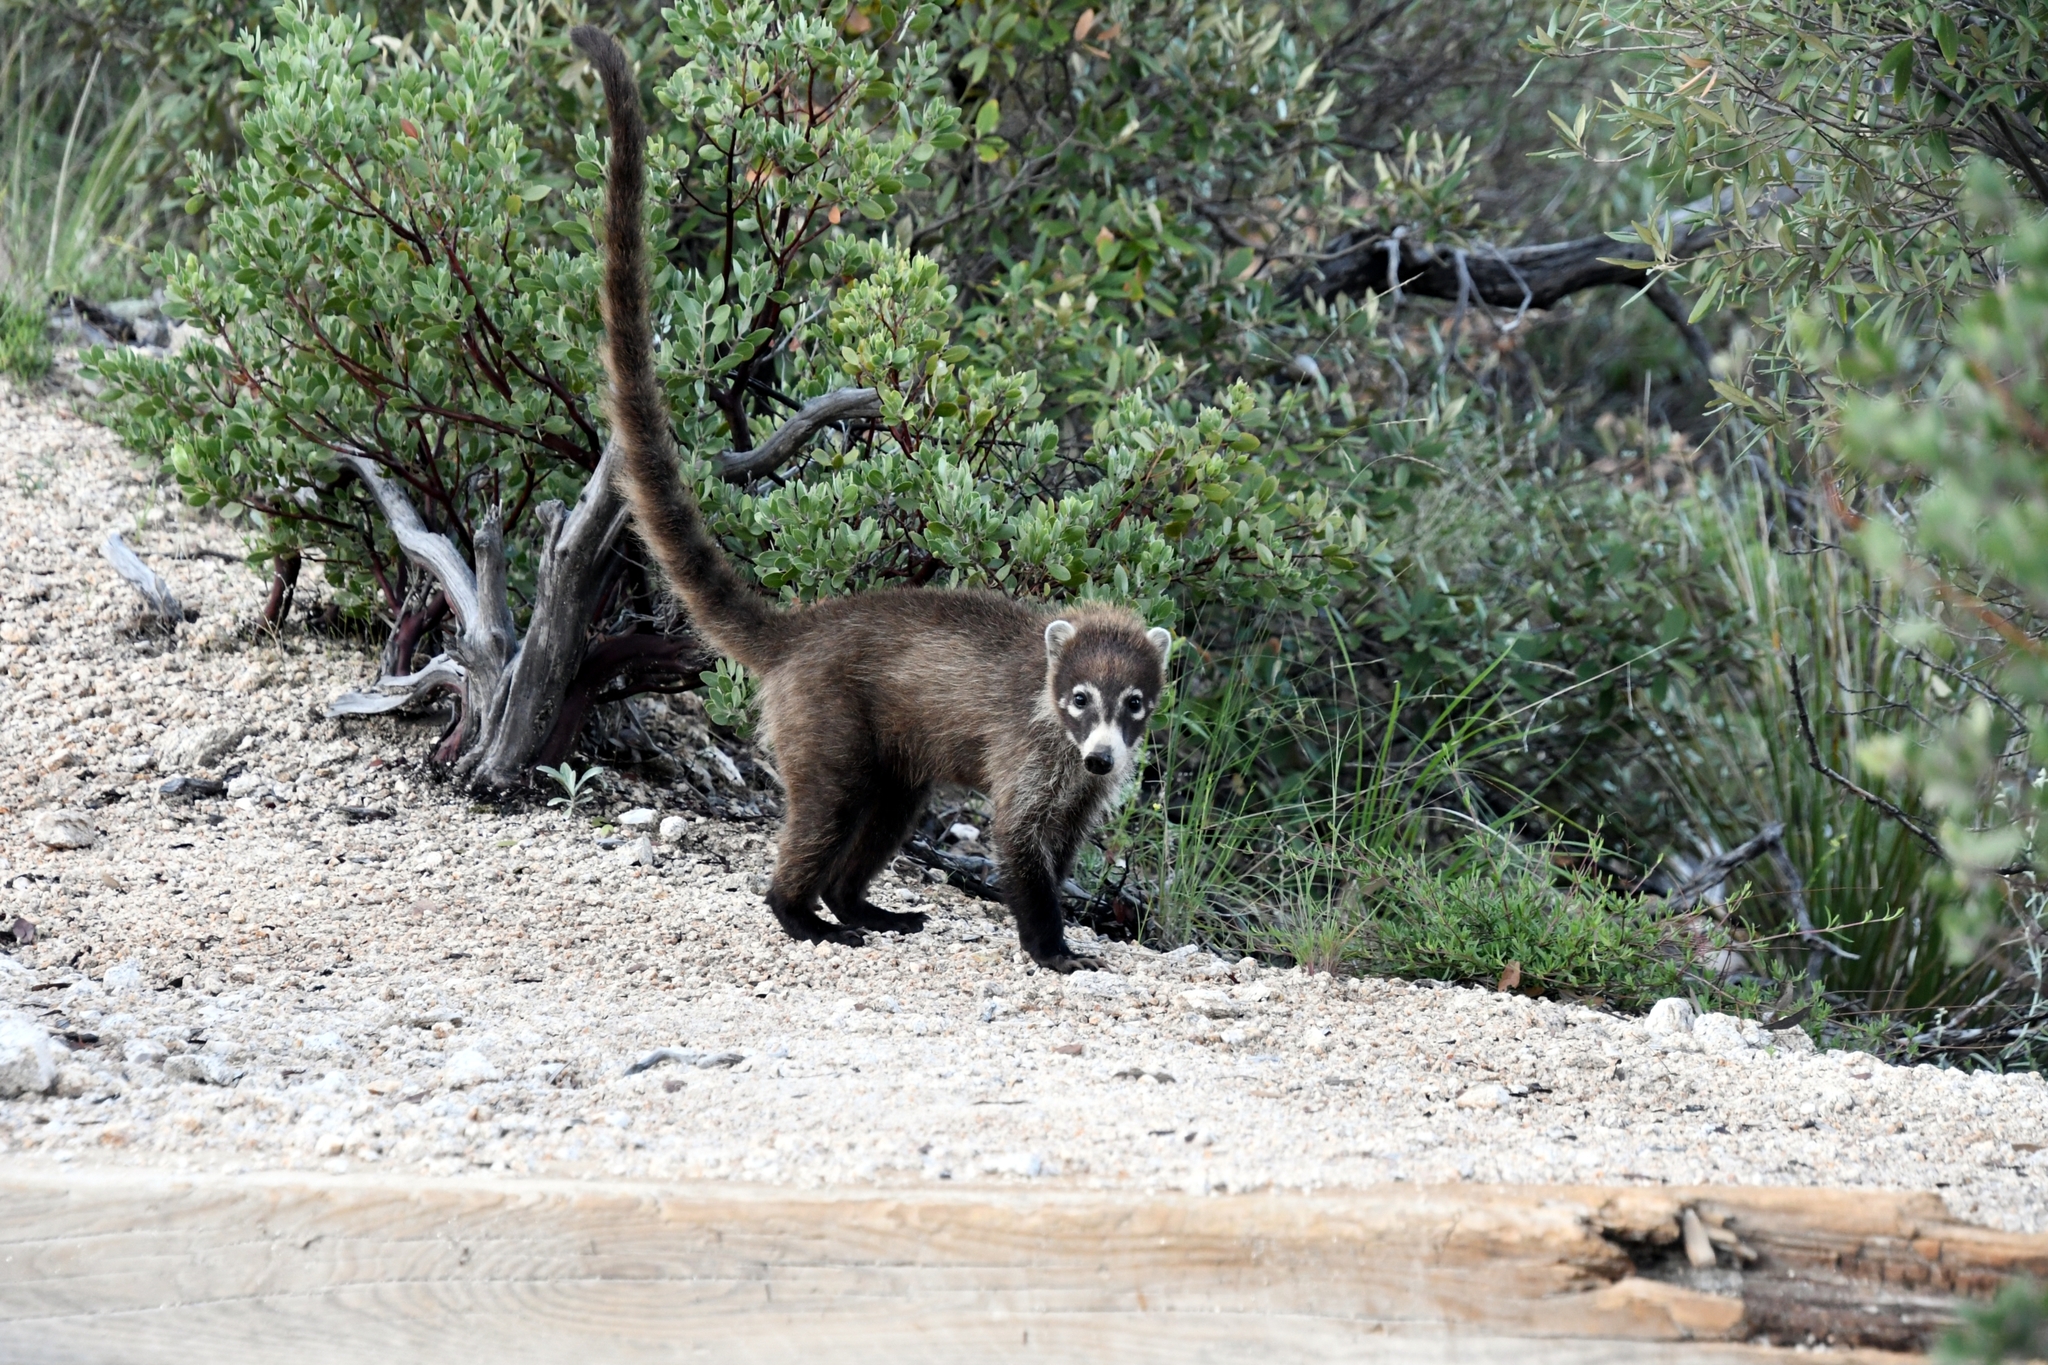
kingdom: Animalia
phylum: Chordata
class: Mammalia
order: Carnivora
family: Procyonidae
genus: Nasua
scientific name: Nasua narica
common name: White-nosed coati
